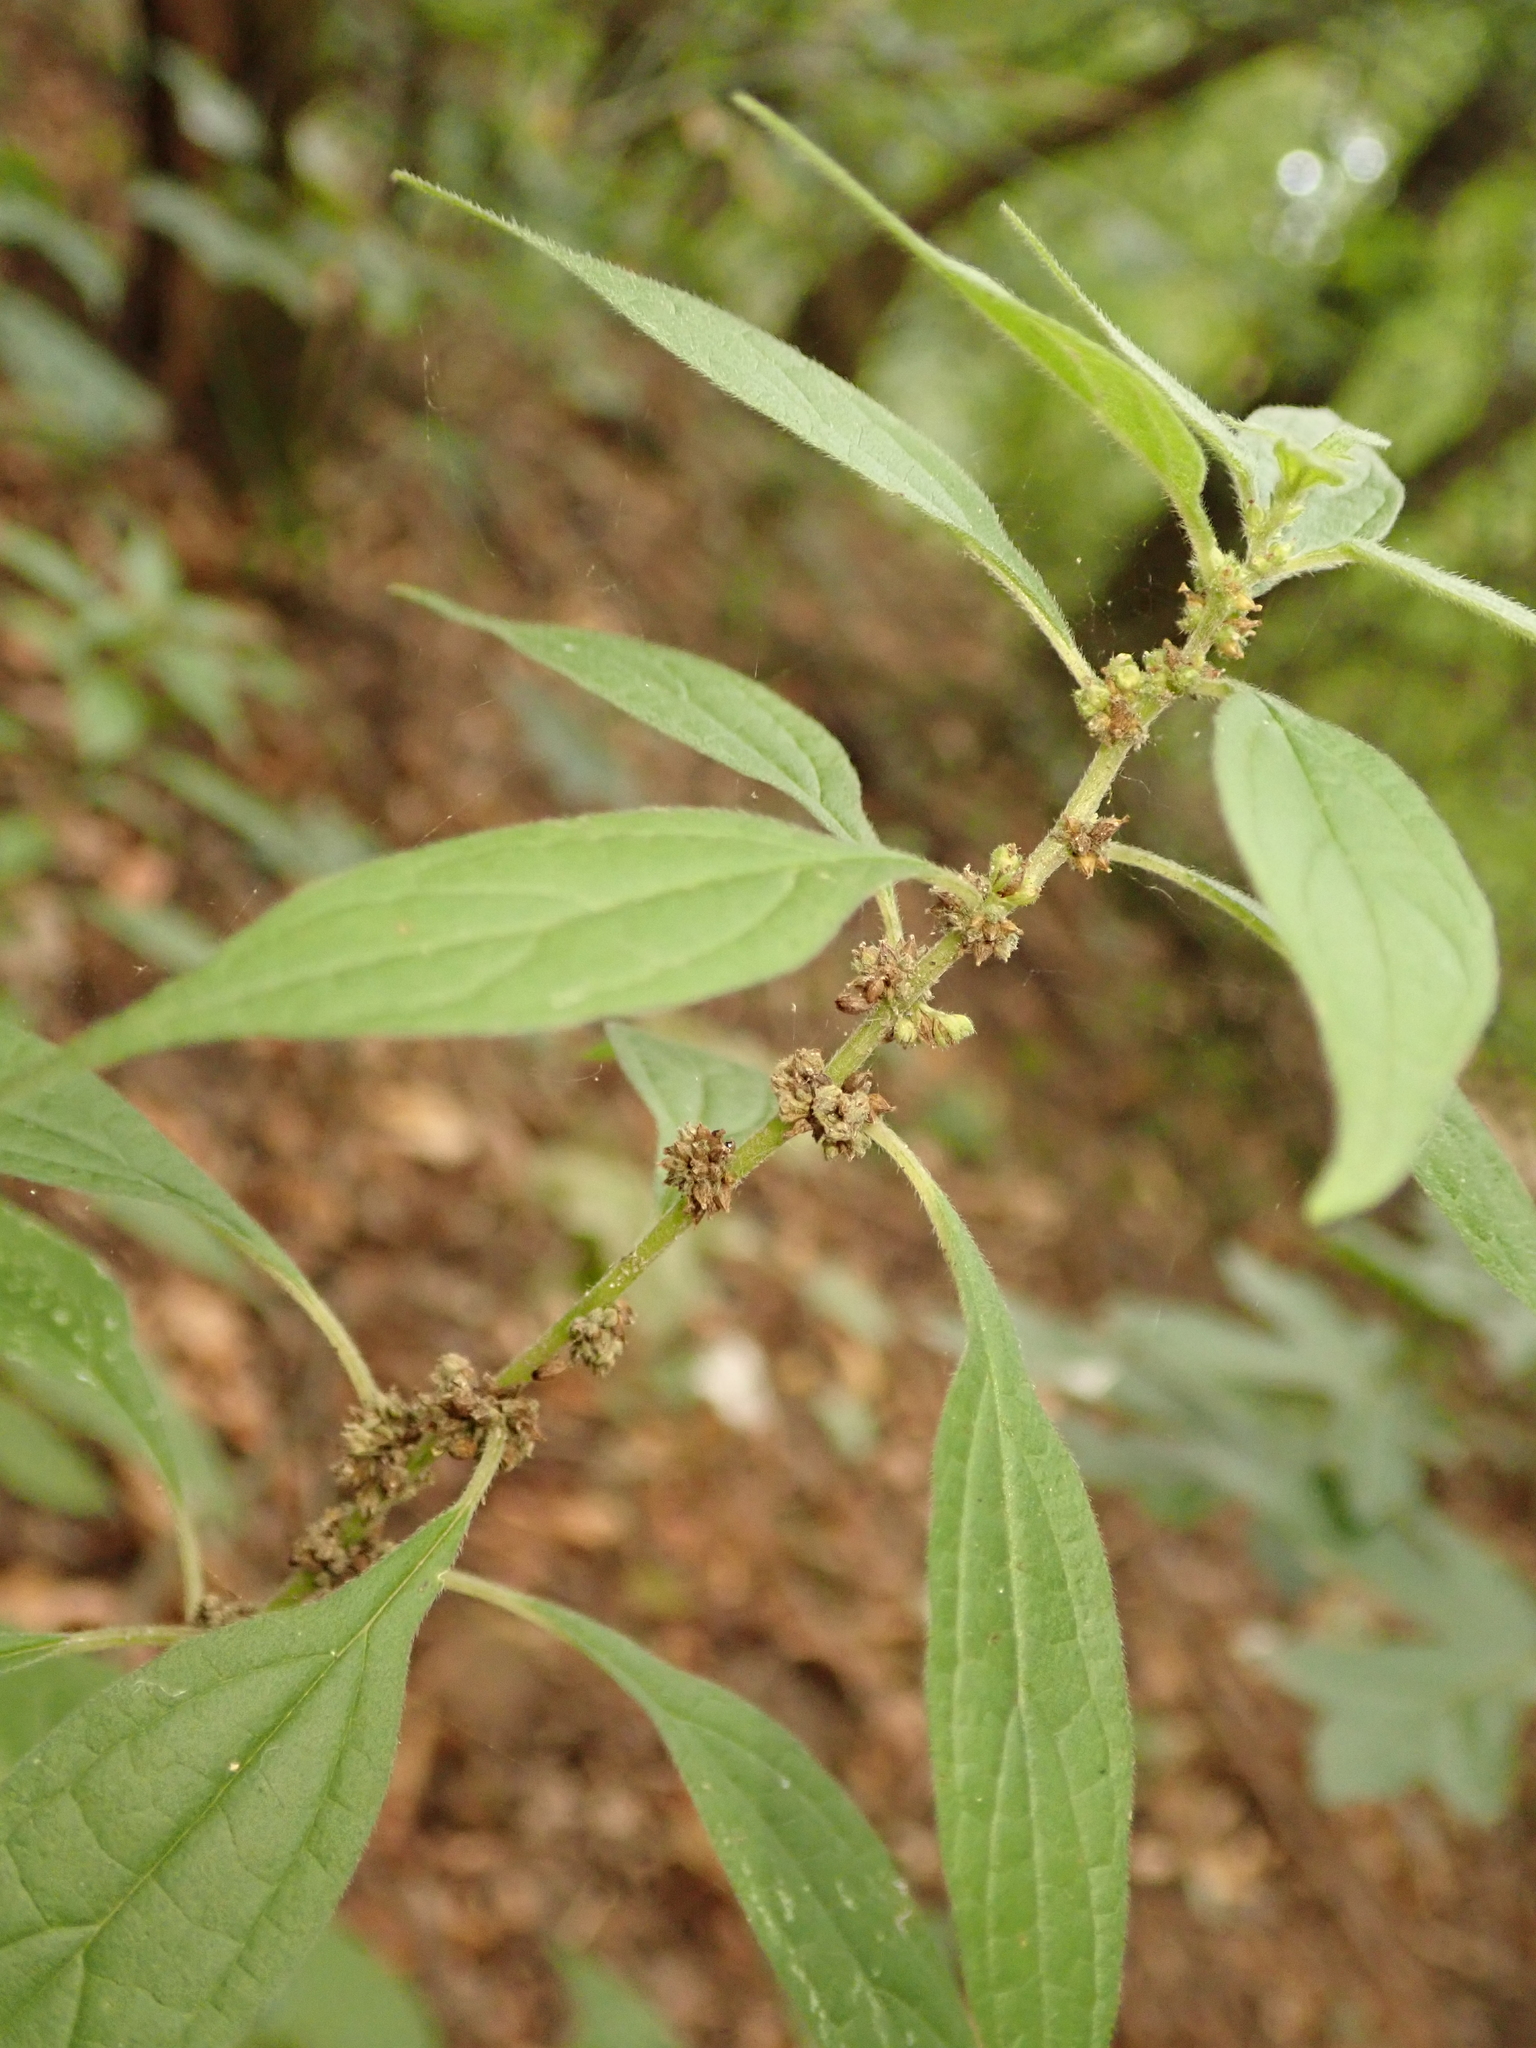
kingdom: Plantae
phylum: Tracheophyta
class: Magnoliopsida
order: Rosales
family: Urticaceae
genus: Parietaria
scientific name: Parietaria officinalis
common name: Eastern pellitory-of-the-wall
